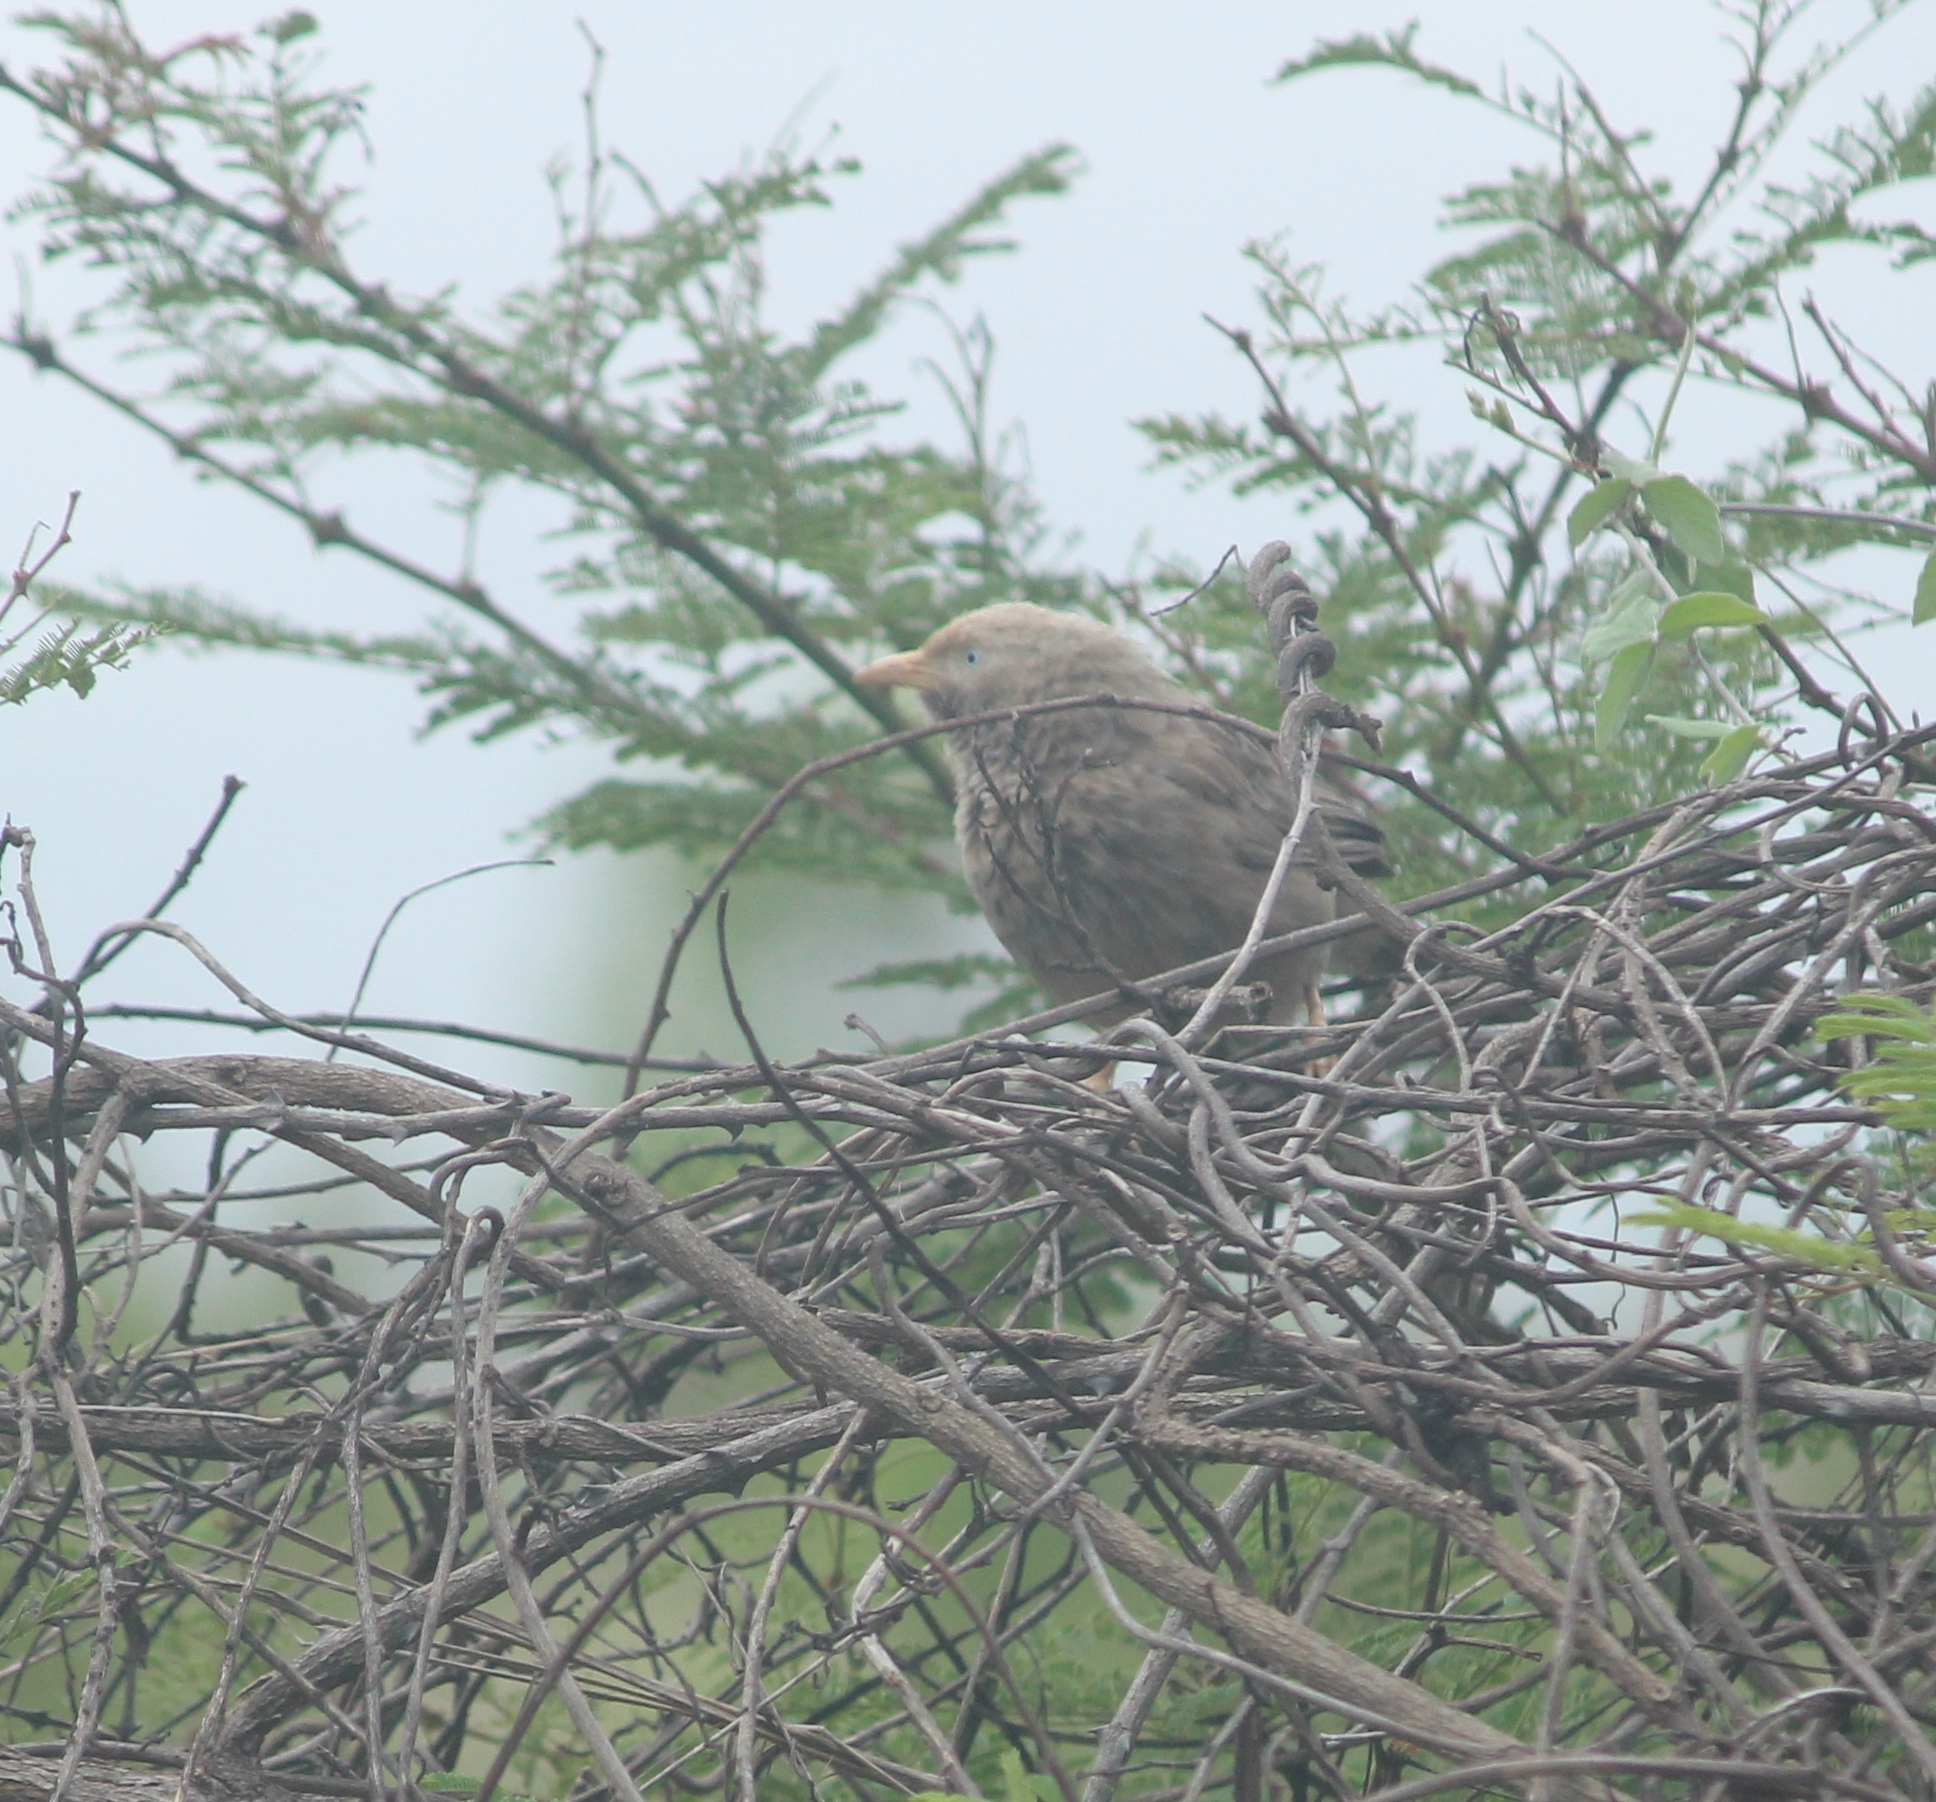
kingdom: Animalia
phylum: Chordata
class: Aves
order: Passeriformes
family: Leiothrichidae
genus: Turdoides
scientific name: Turdoides affinis
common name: Yellow-billed babbler
